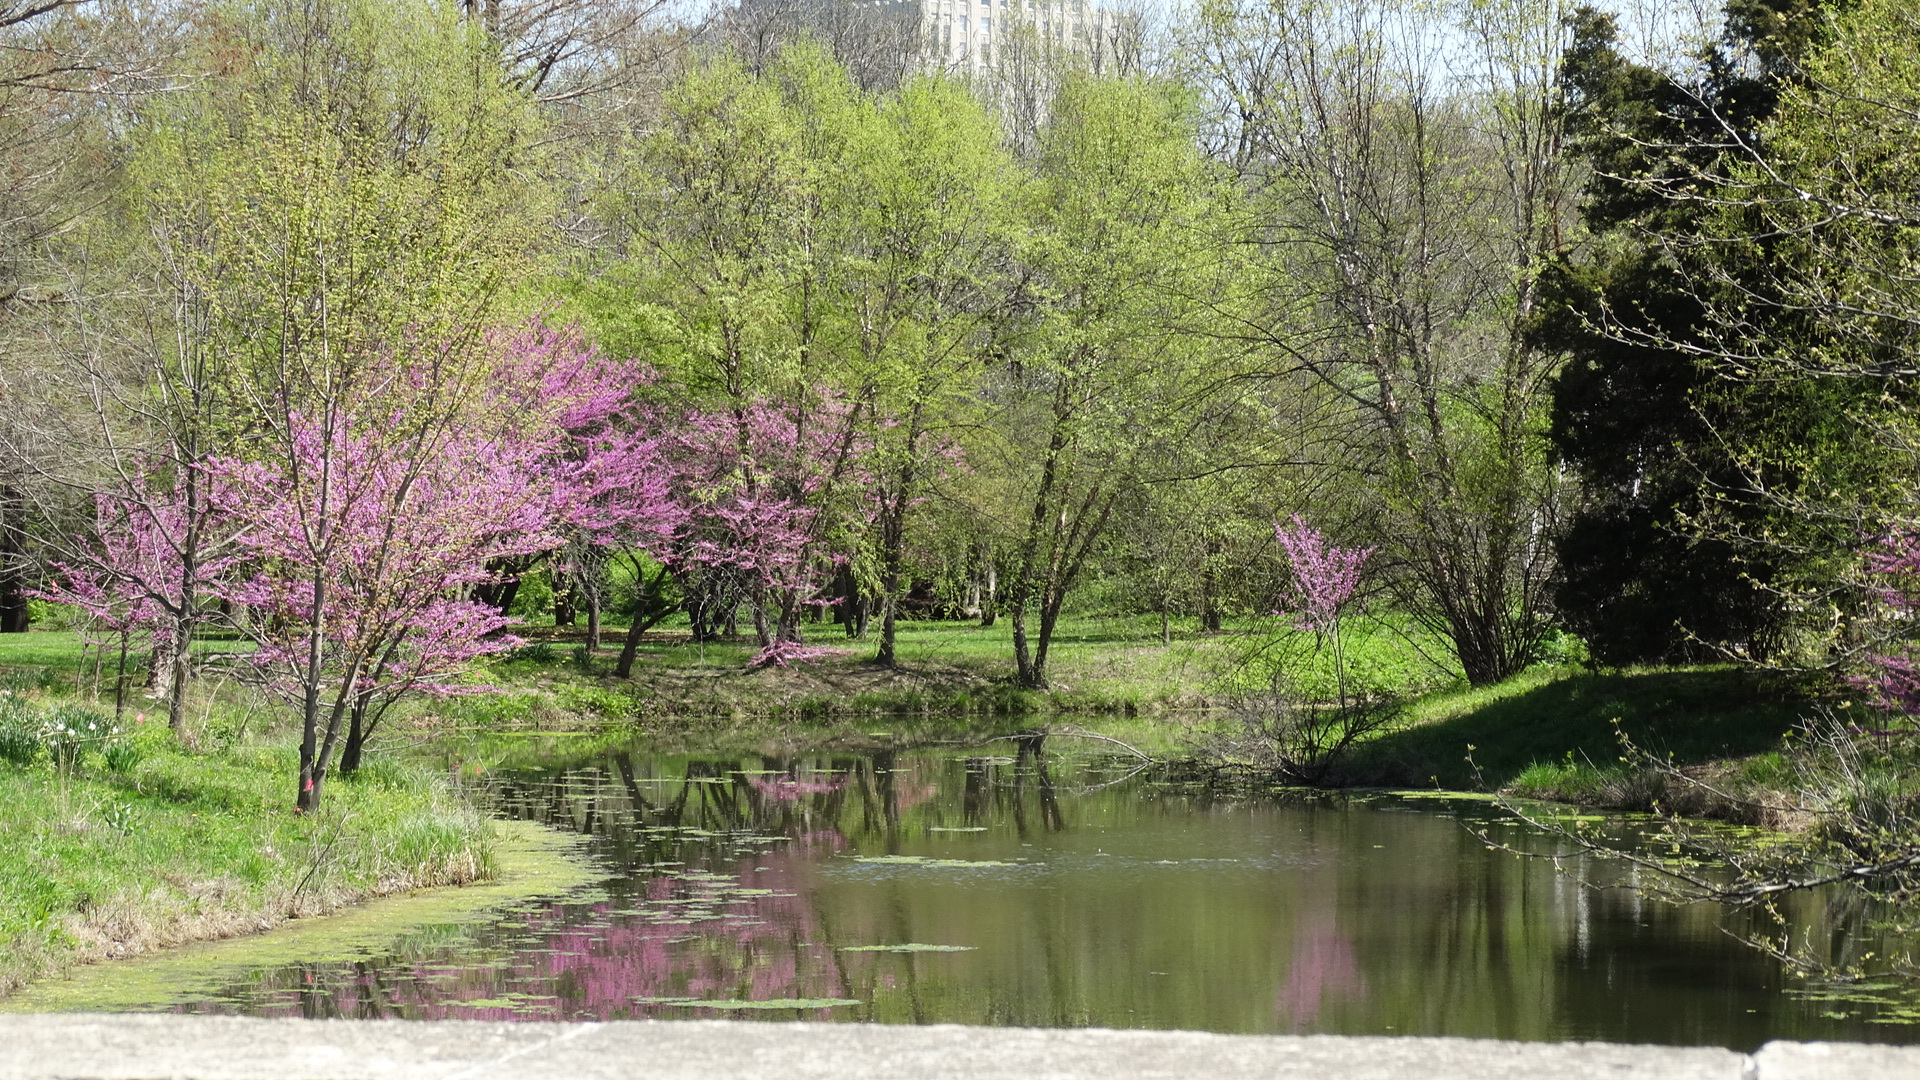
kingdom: Plantae
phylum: Tracheophyta
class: Magnoliopsida
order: Fabales
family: Fabaceae
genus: Cercis
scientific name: Cercis canadensis
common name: Eastern redbud
